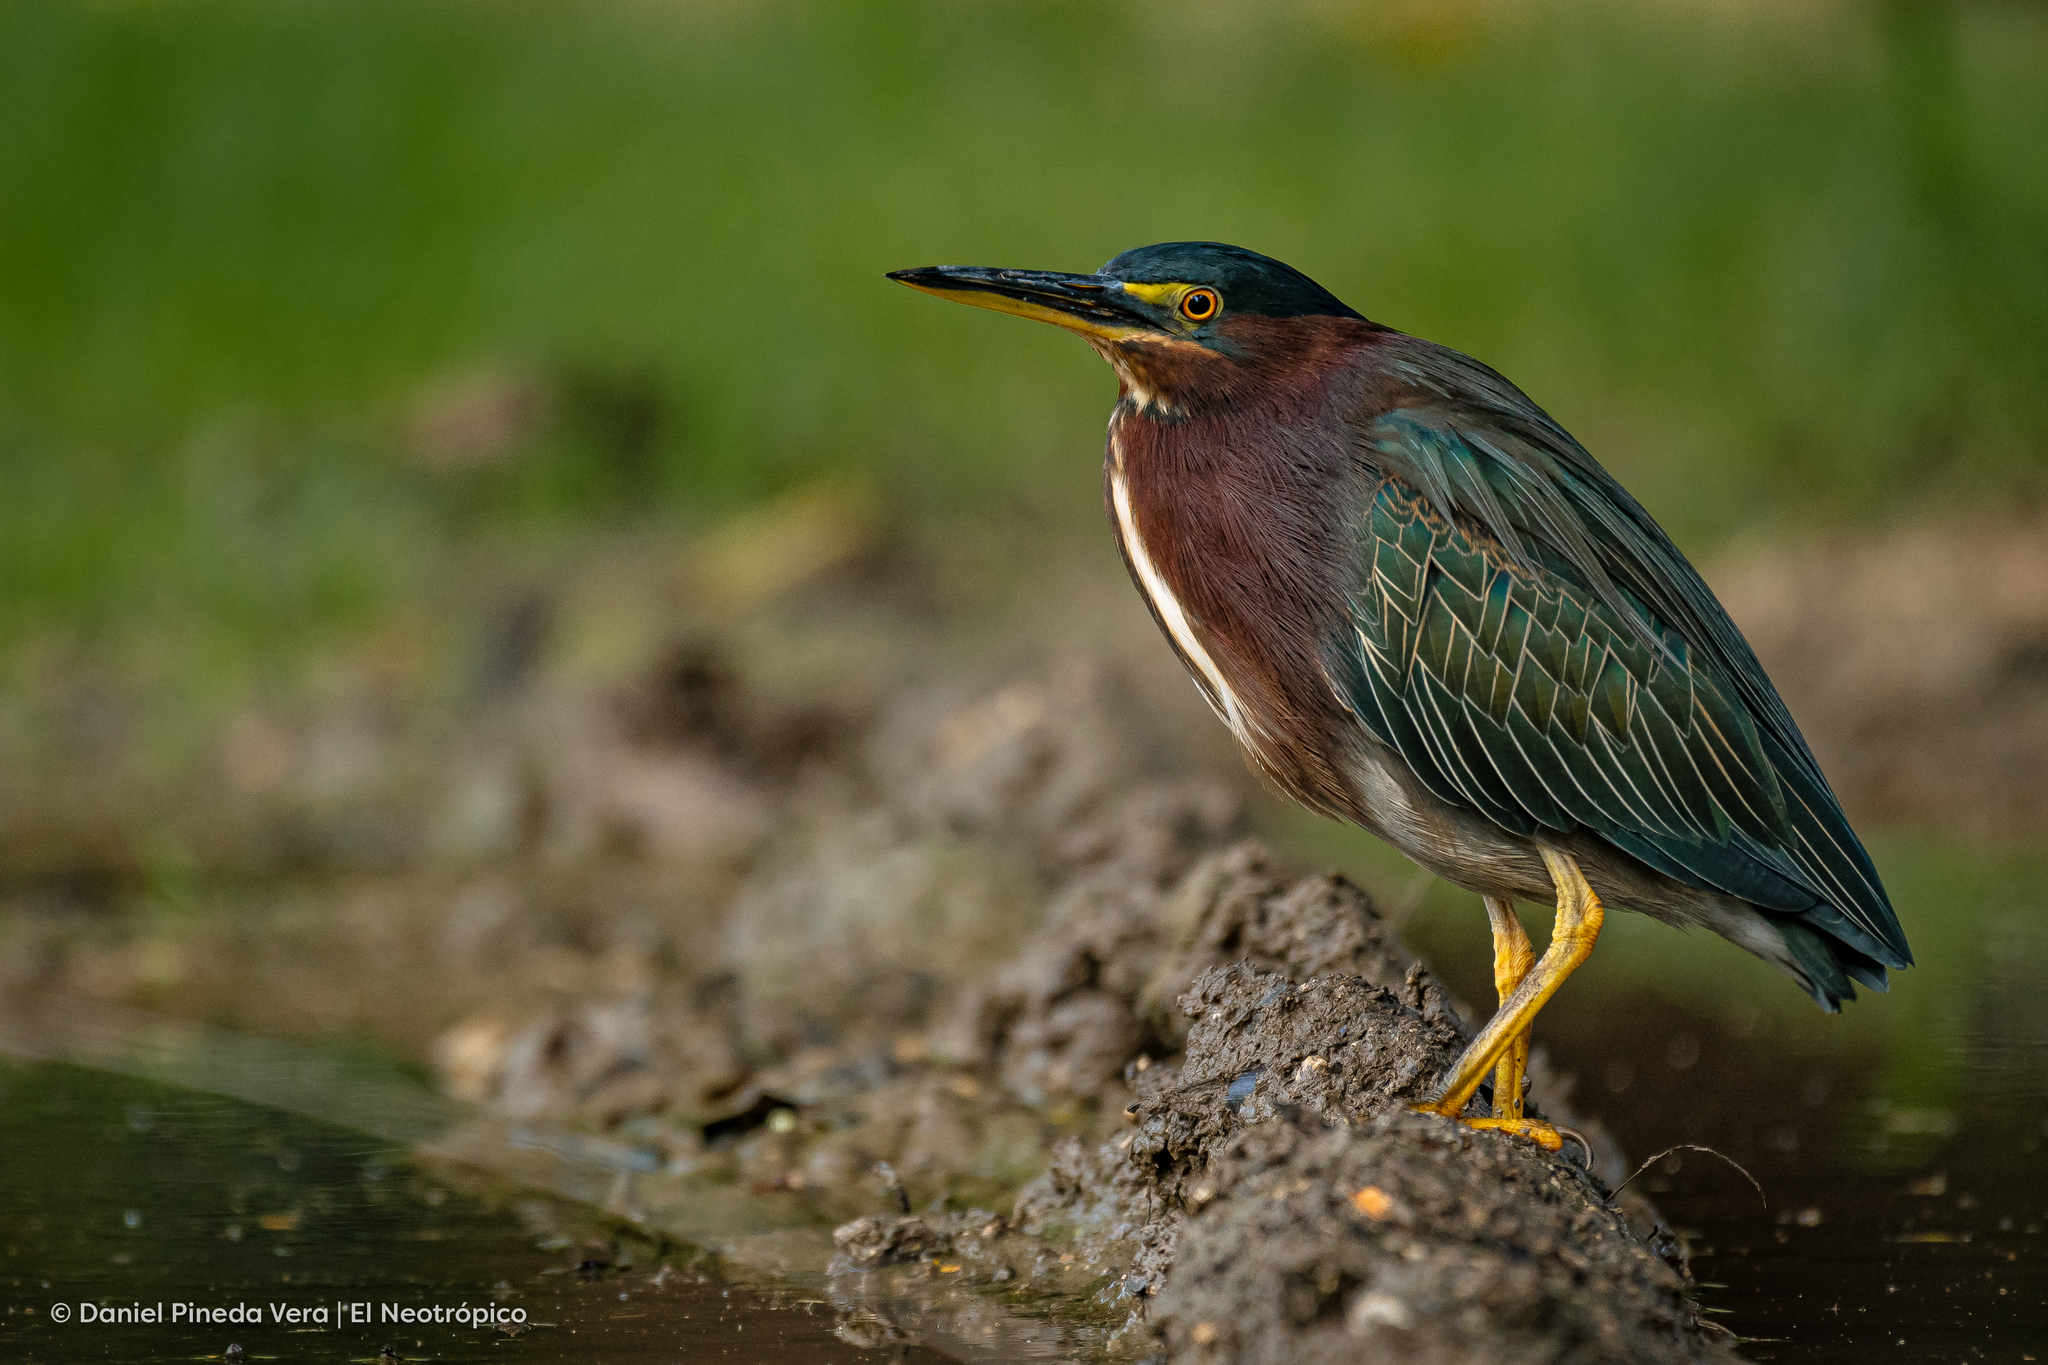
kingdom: Animalia
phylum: Chordata
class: Aves
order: Pelecaniformes
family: Ardeidae
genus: Butorides
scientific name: Butorides virescens
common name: Green heron
